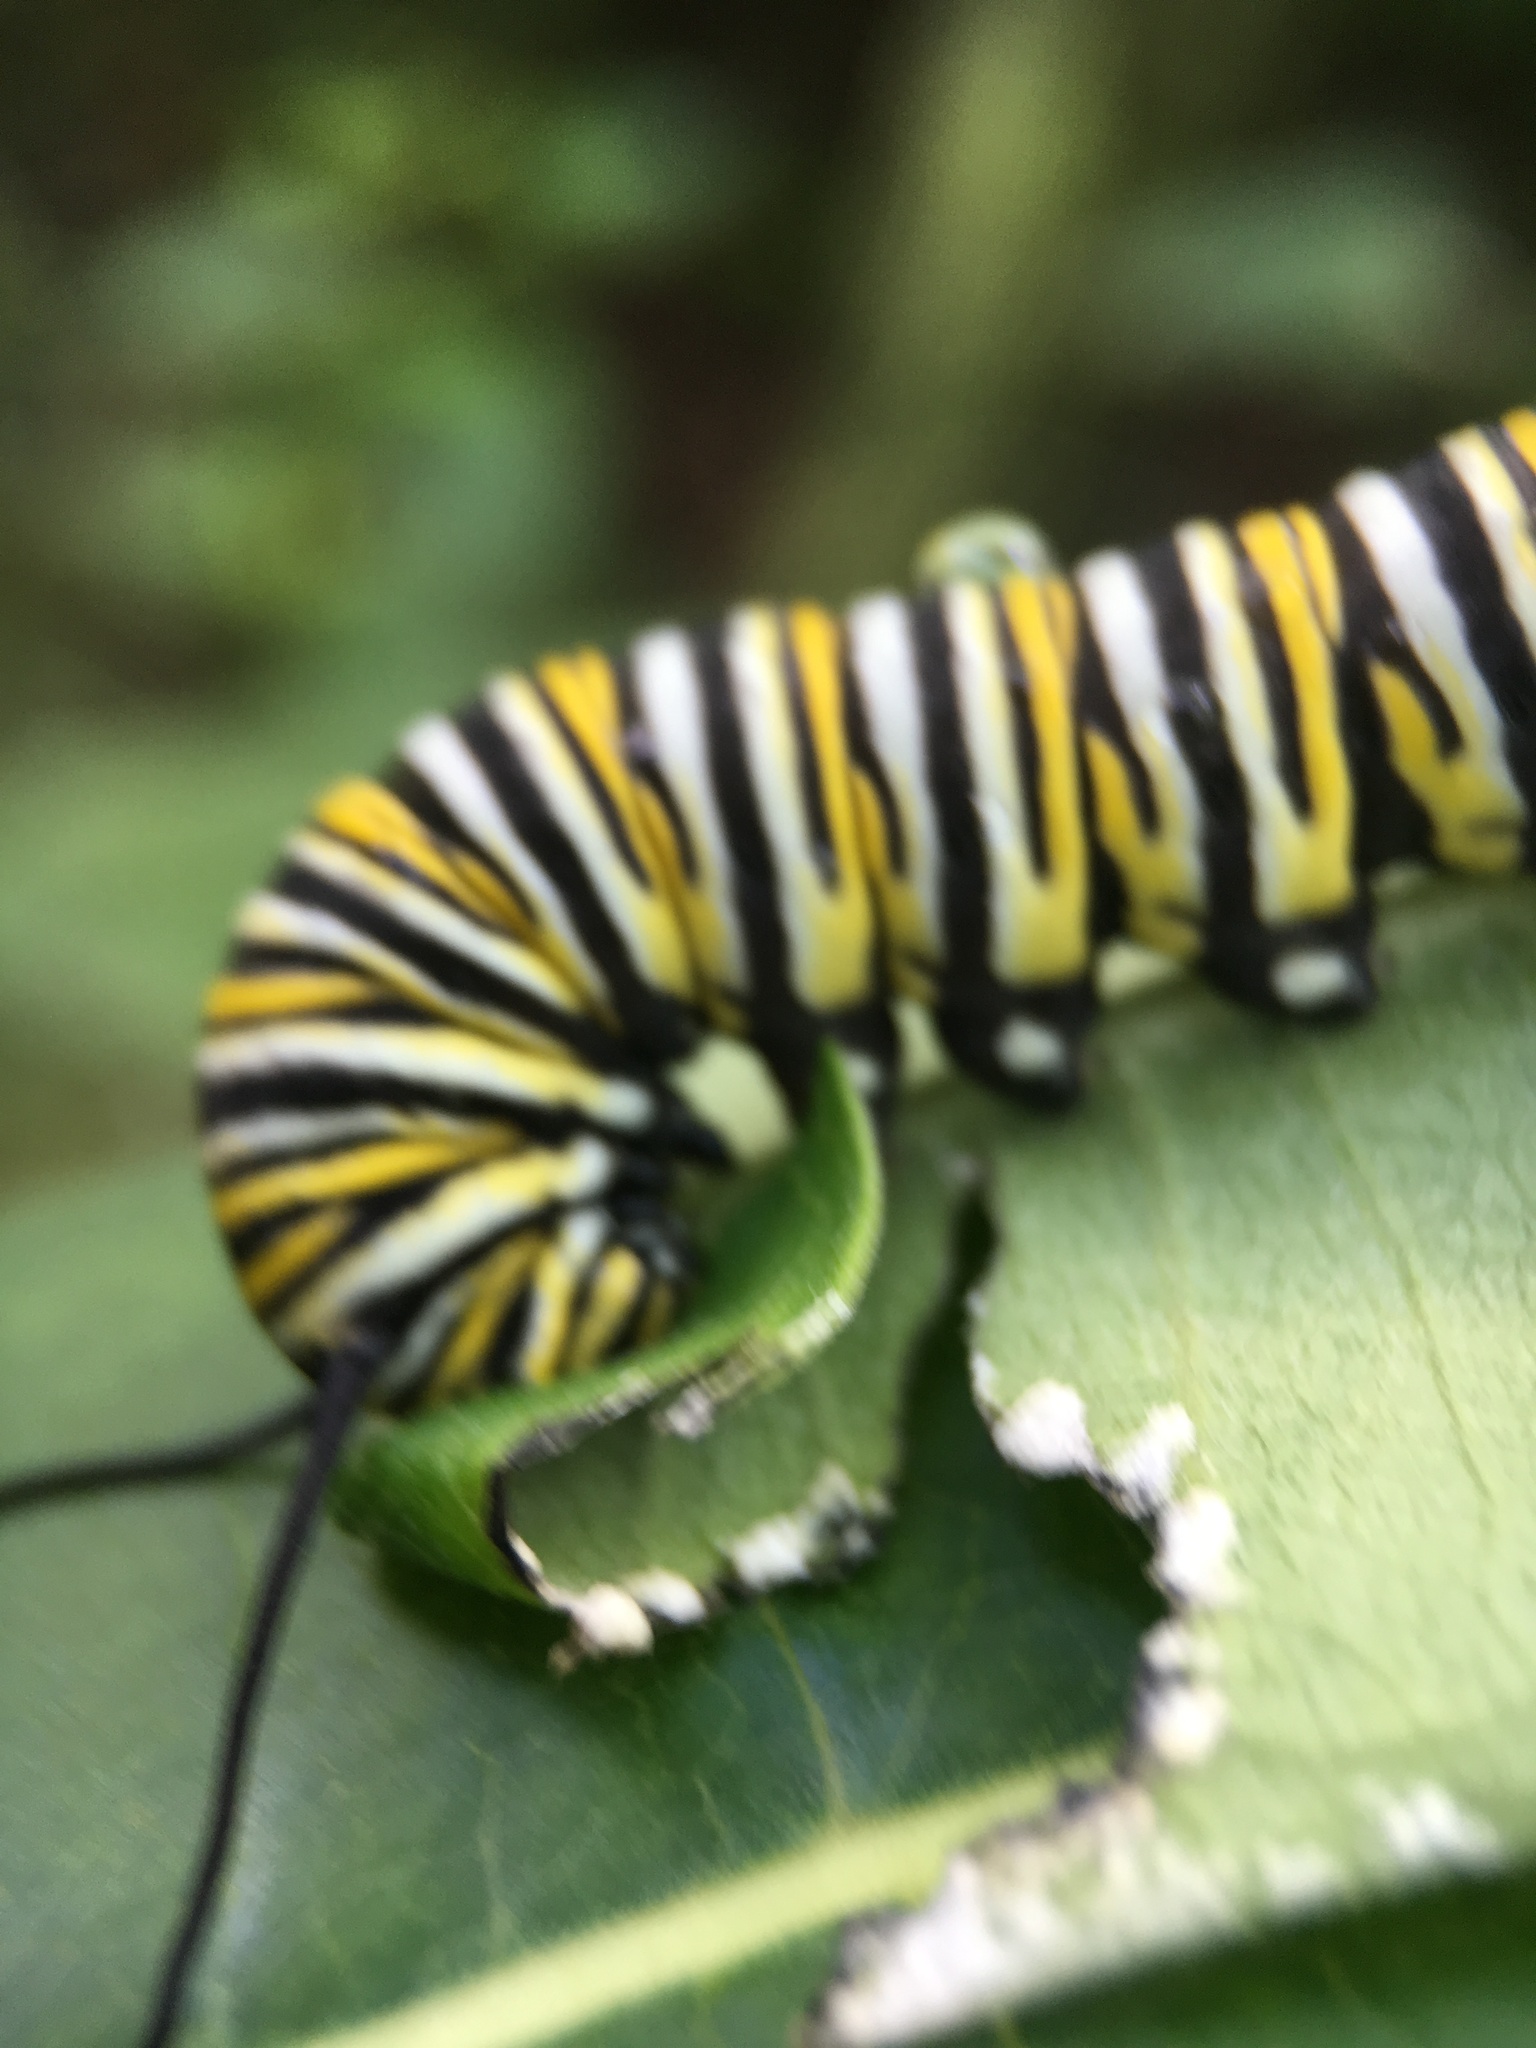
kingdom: Animalia
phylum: Arthropoda
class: Insecta
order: Lepidoptera
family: Nymphalidae
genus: Danaus
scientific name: Danaus plexippus
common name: Monarch
